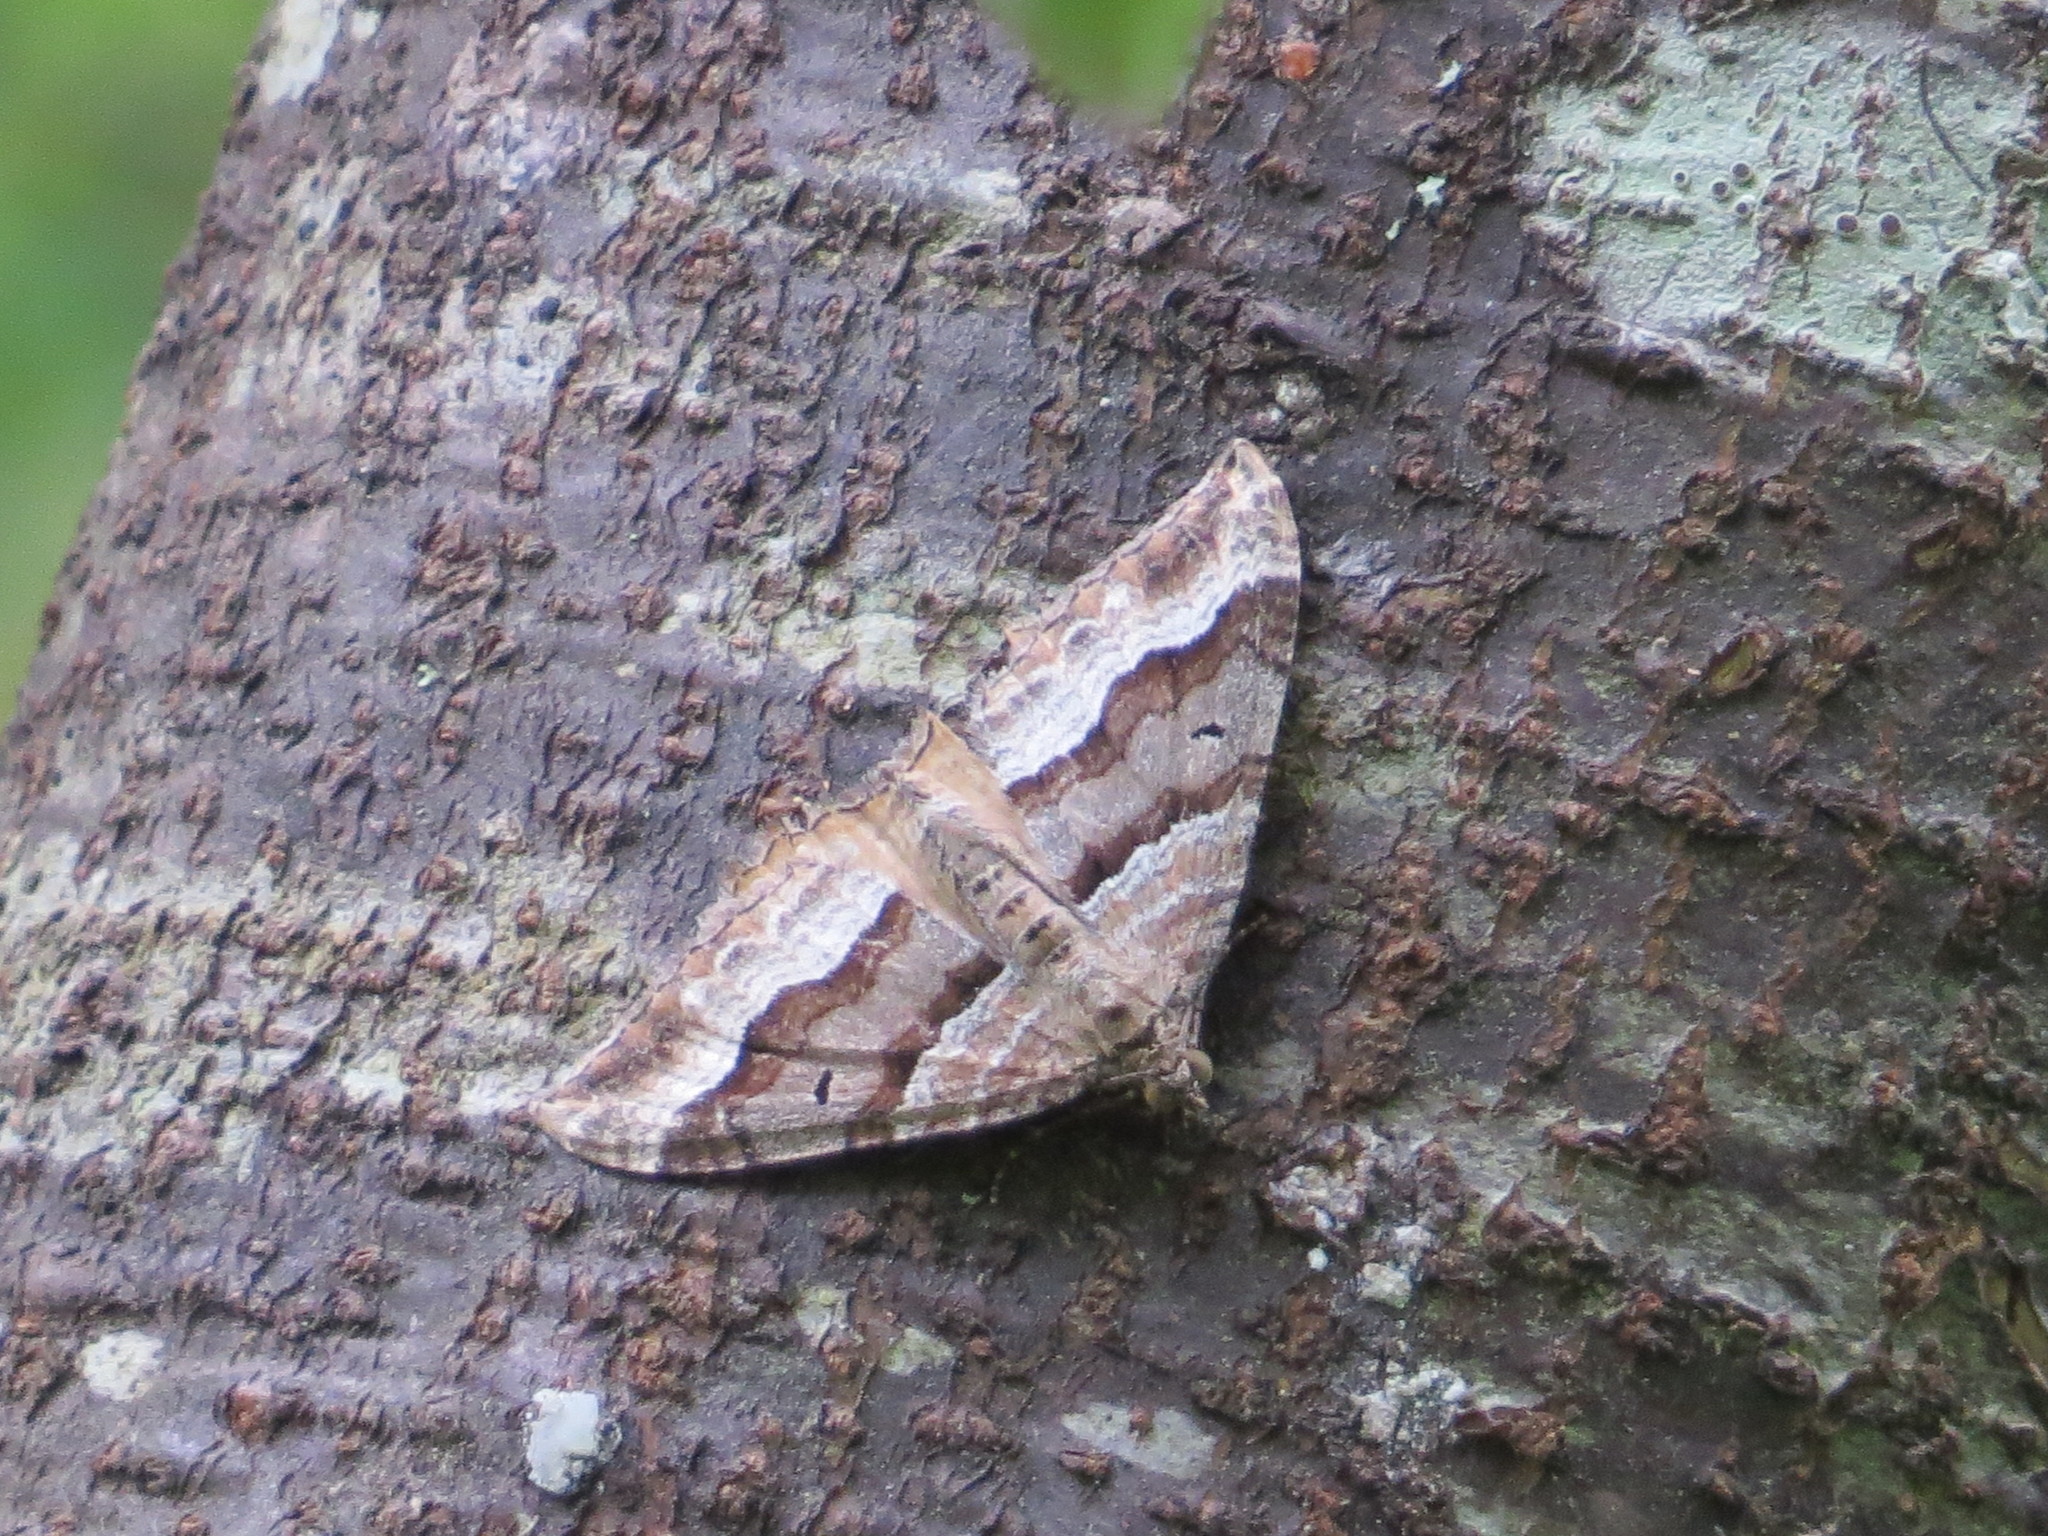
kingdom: Animalia
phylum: Arthropoda
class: Insecta
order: Lepidoptera
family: Geometridae
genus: Hydriomena
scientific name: Hydriomena deltoidata
